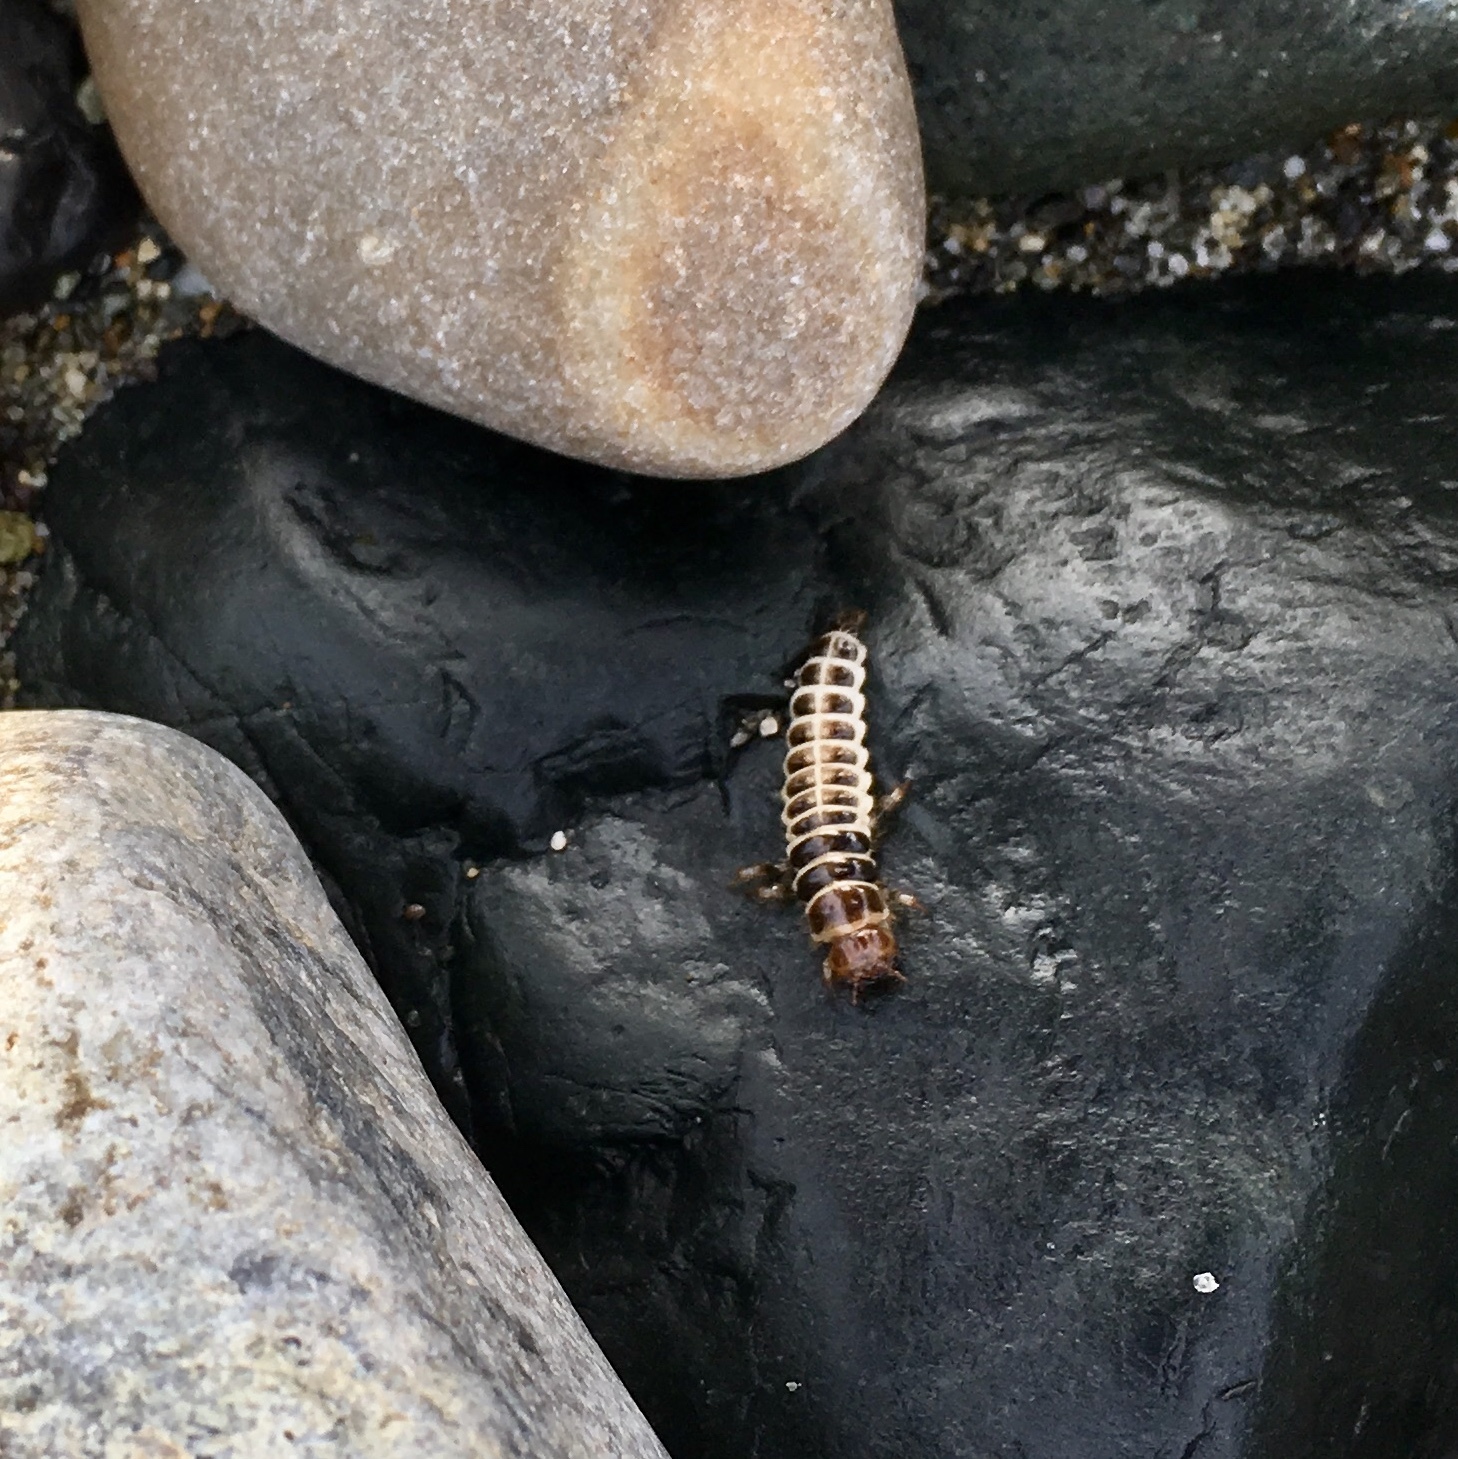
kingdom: Animalia
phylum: Arthropoda
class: Insecta
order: Coleoptera
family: Staphylinidae
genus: Thinopinus
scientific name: Thinopinus pictus
